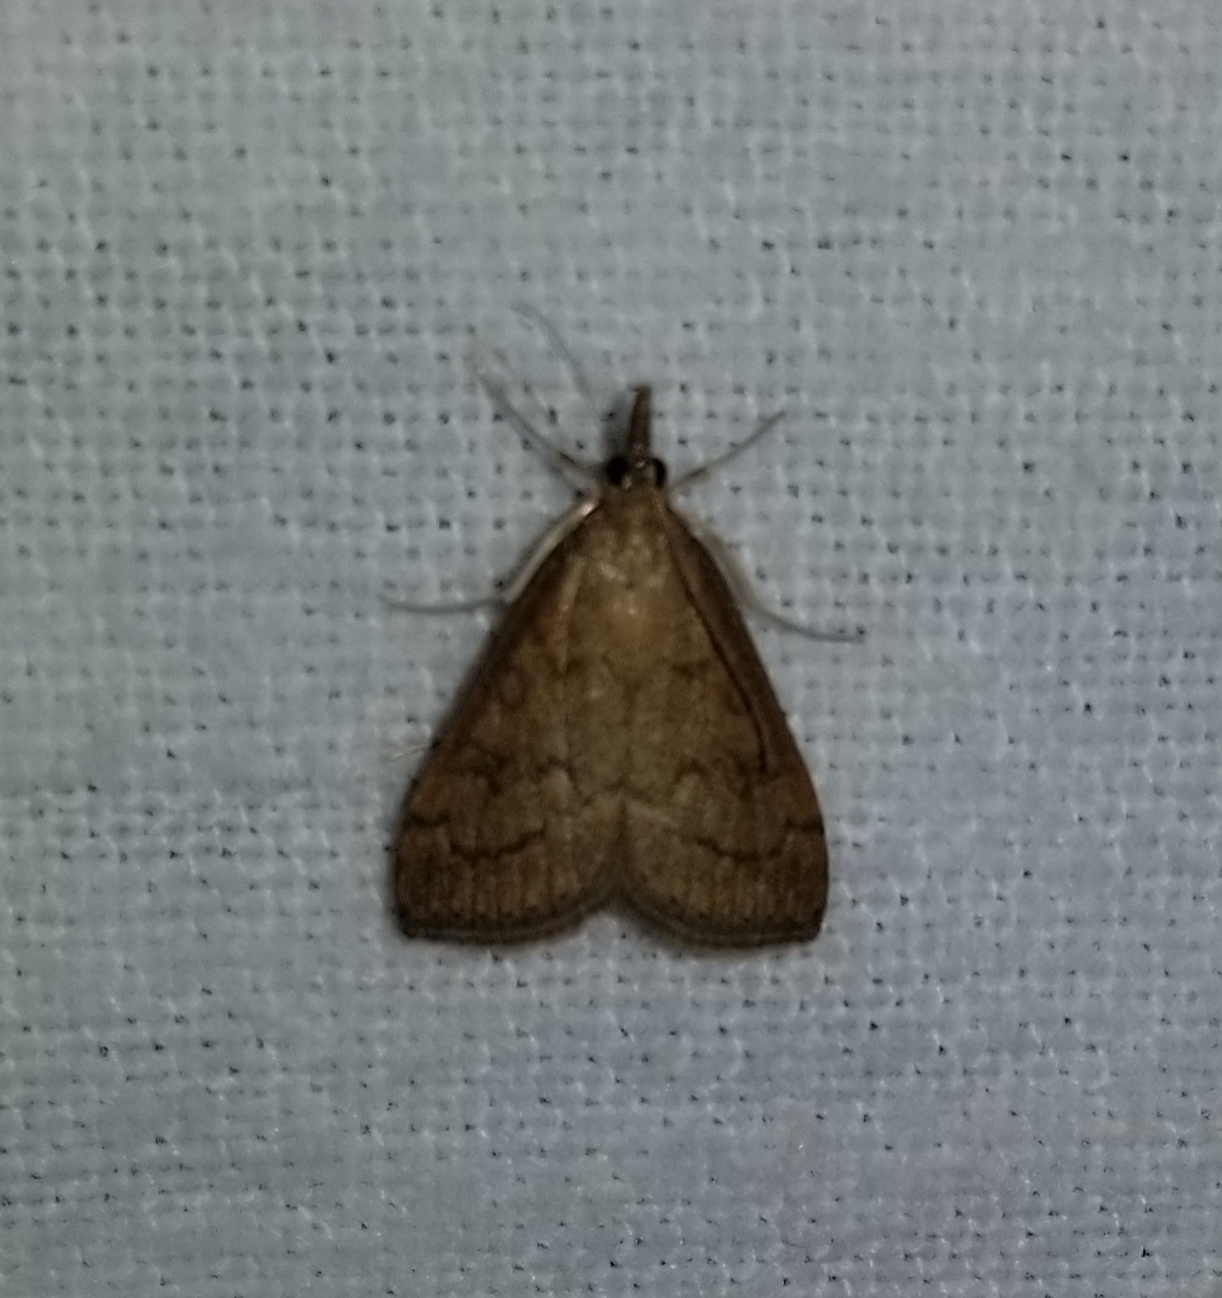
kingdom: Animalia
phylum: Arthropoda
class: Insecta
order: Lepidoptera
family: Crambidae
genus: Udea
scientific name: Udea rubigalis
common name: Celery leaftier moth
